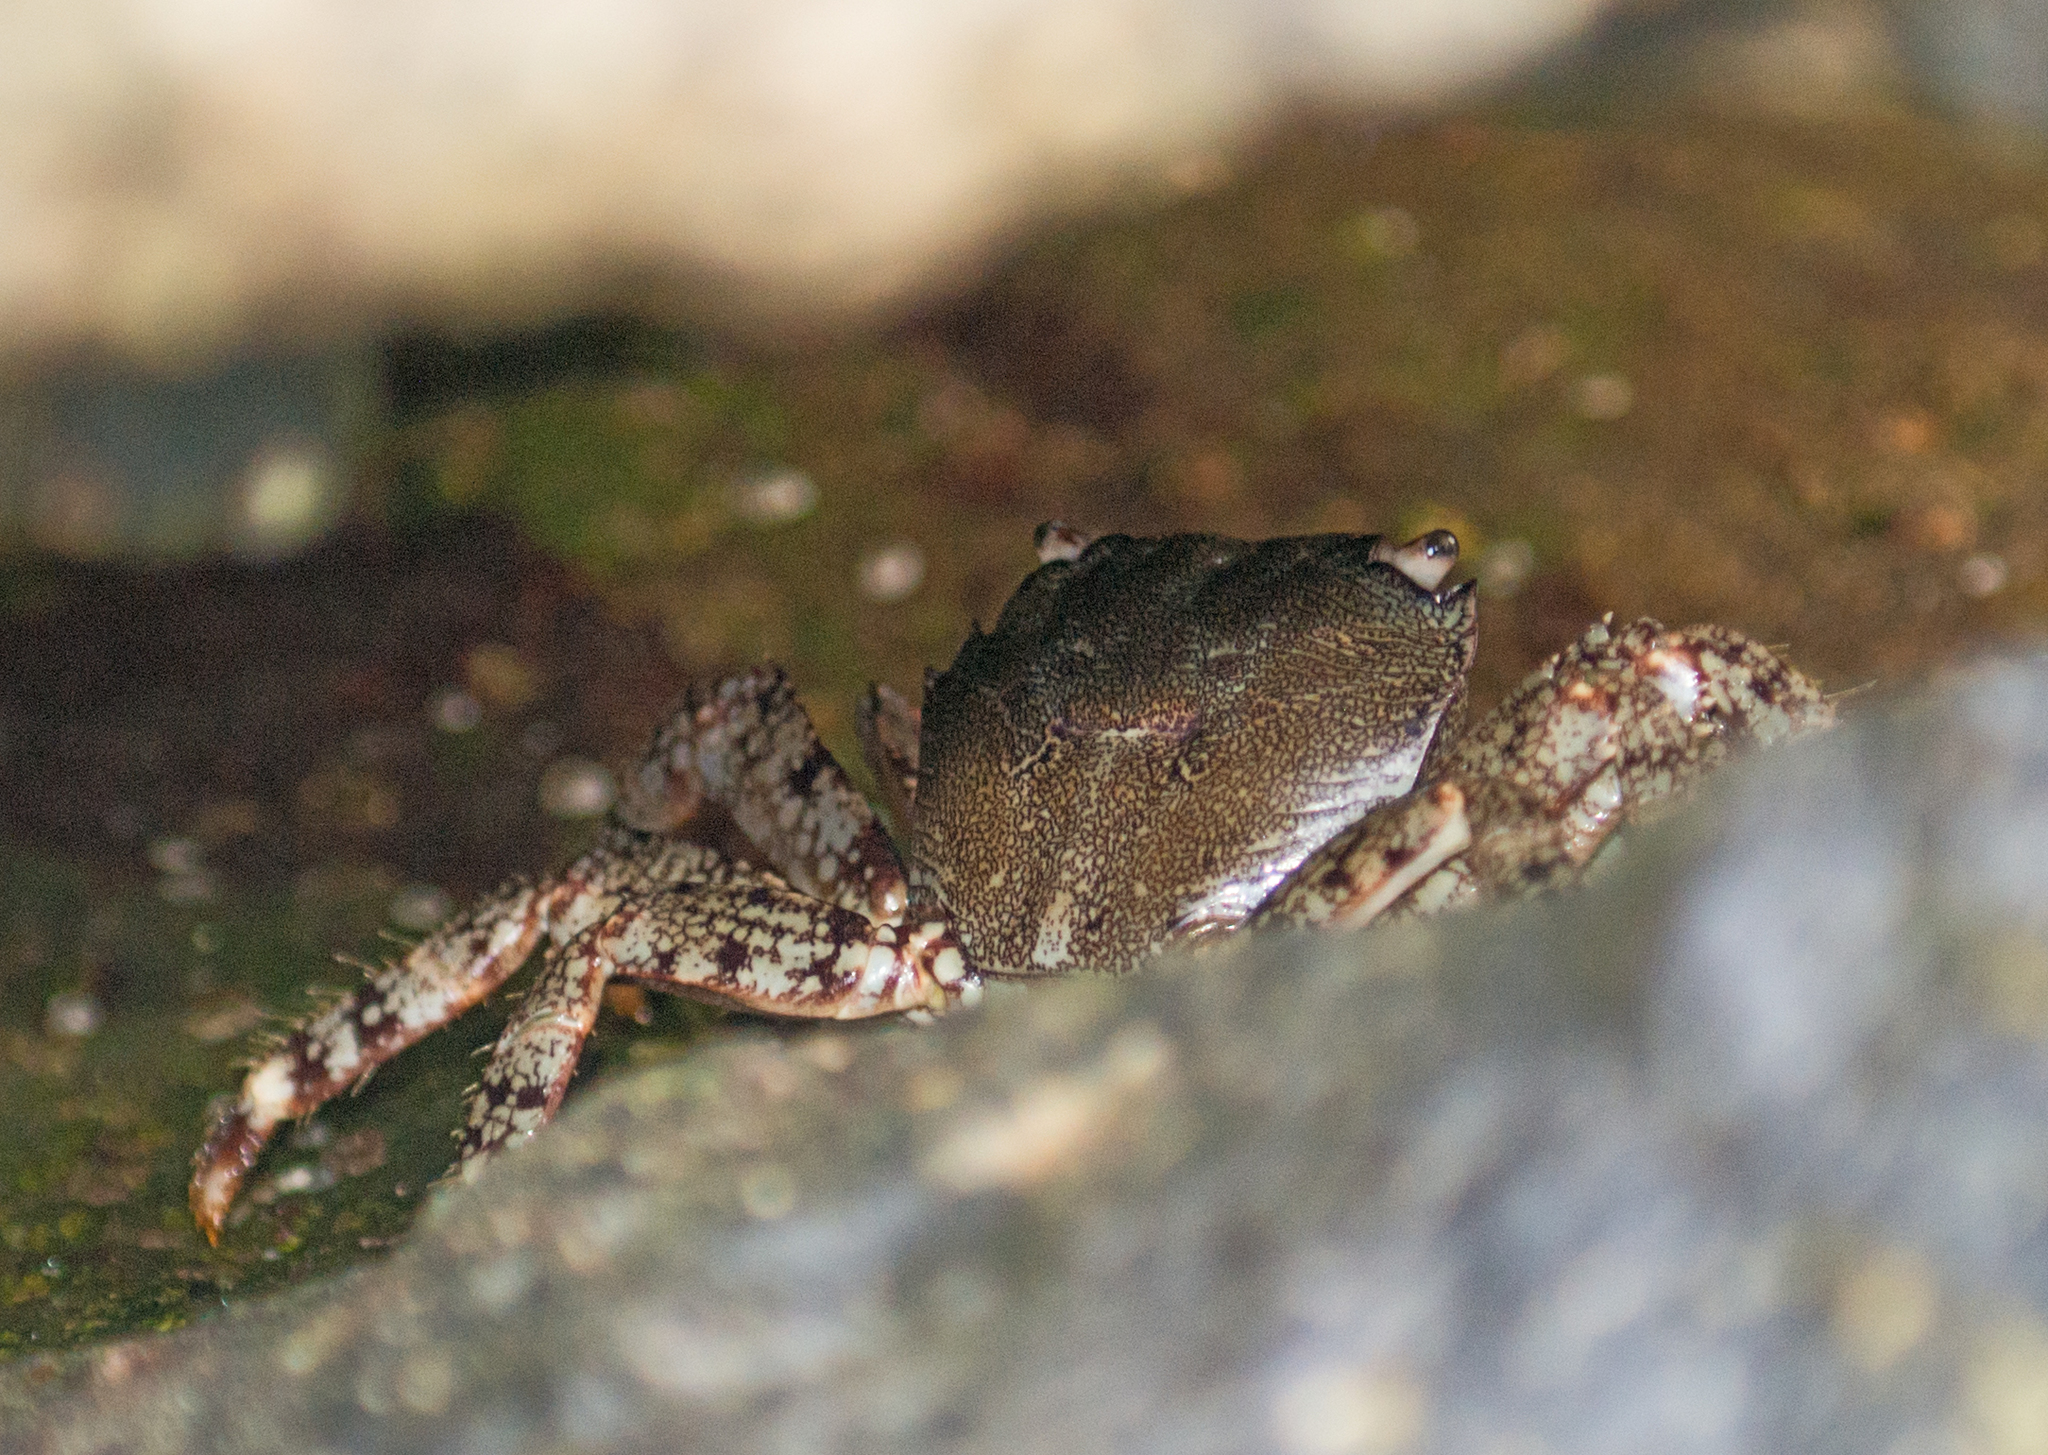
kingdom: Animalia
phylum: Arthropoda
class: Malacostraca
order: Decapoda
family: Grapsidae
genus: Pachygrapsus
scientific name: Pachygrapsus marmoratus
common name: Marbled rock crab
